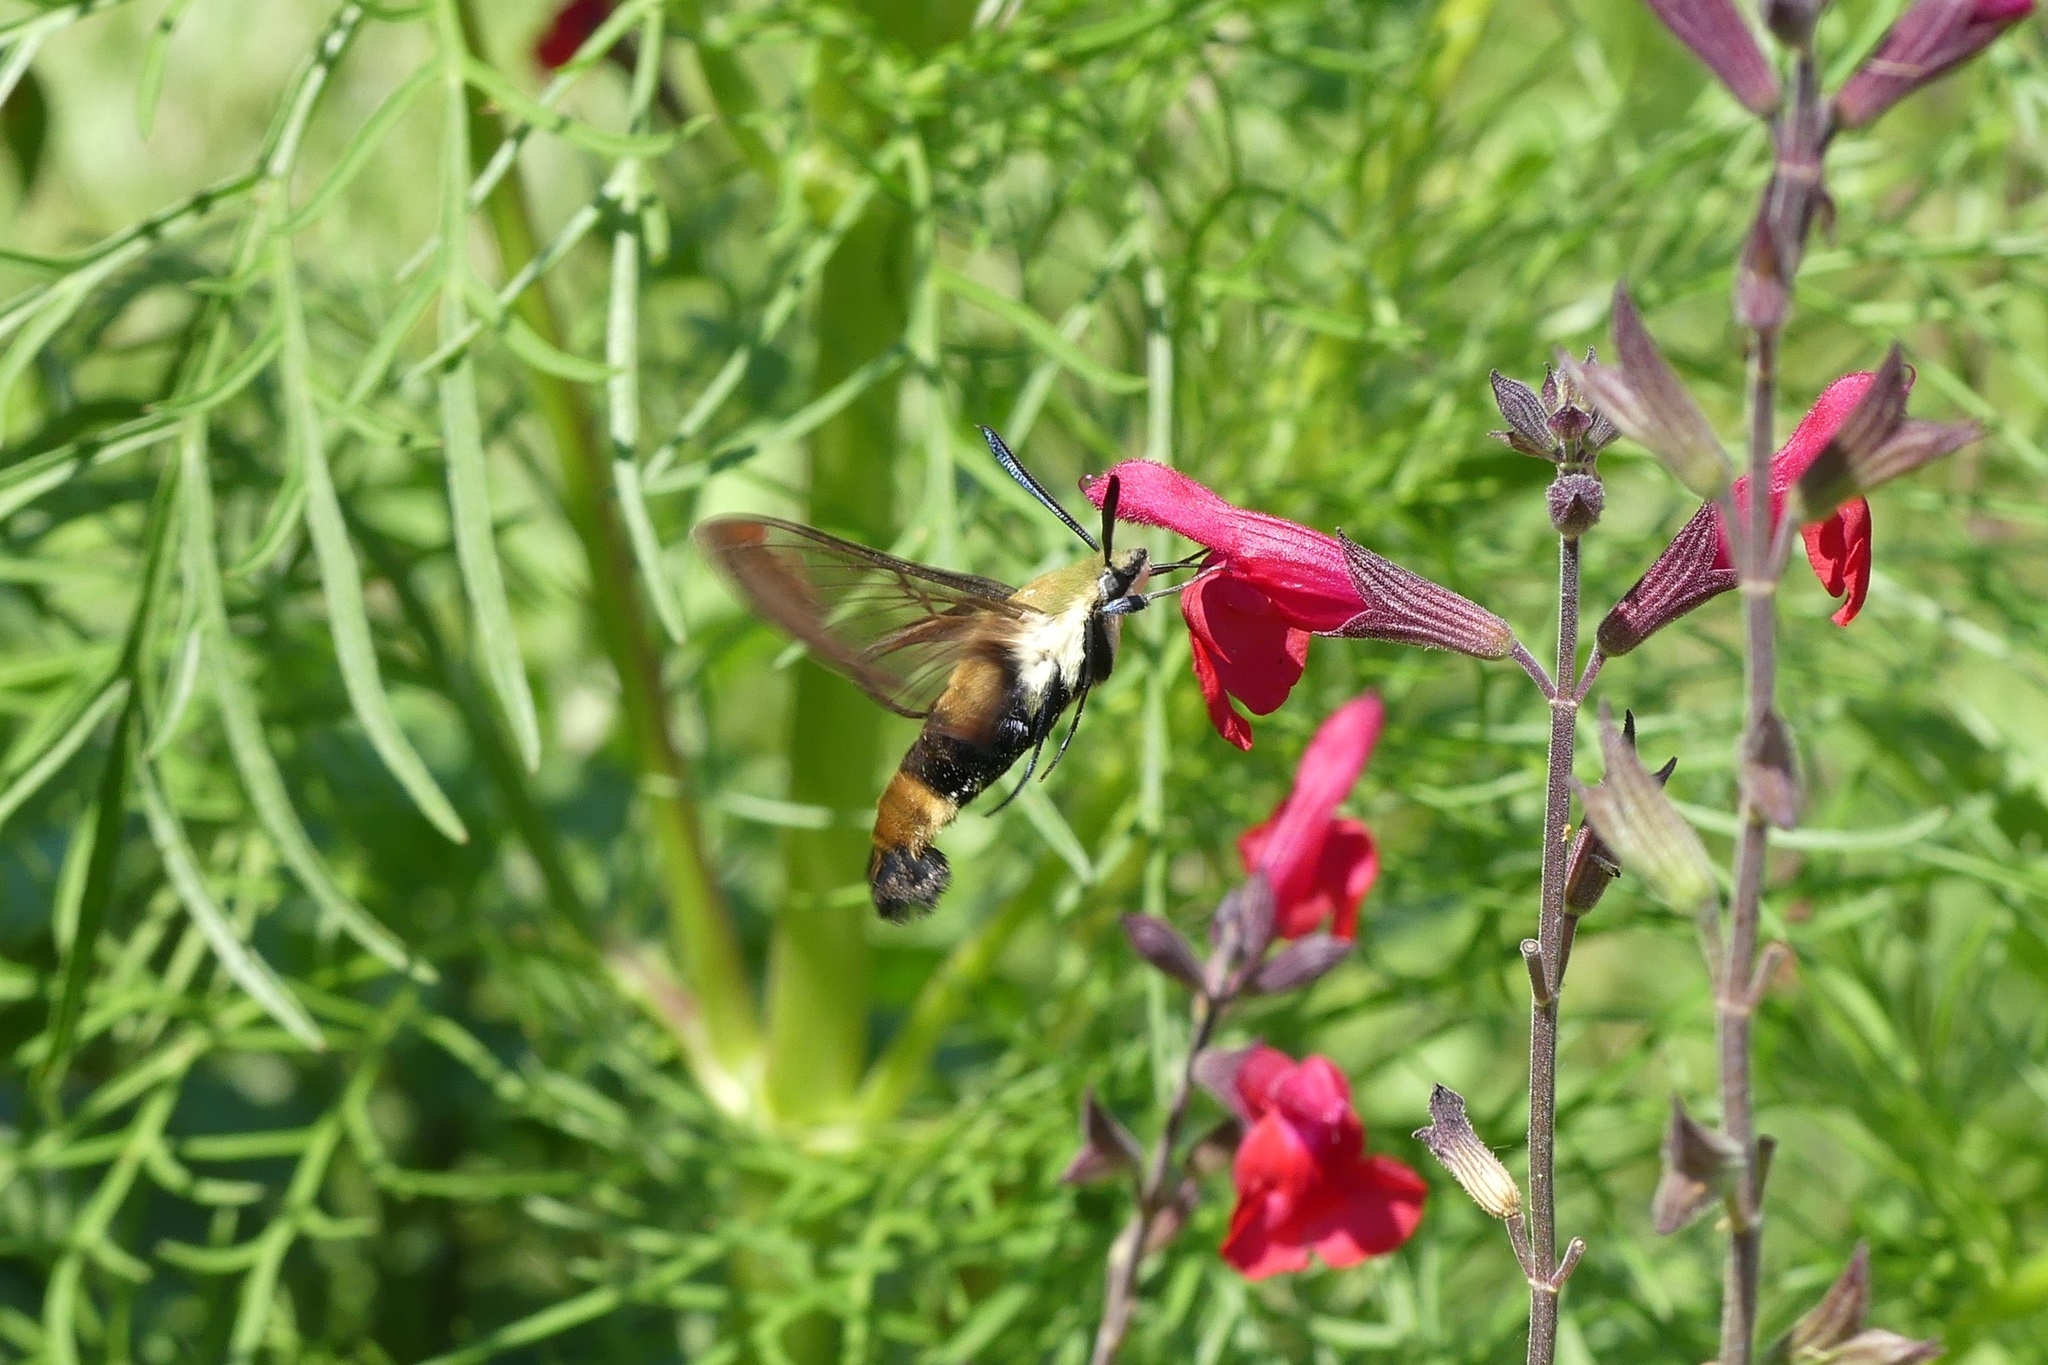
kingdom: Animalia
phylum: Arthropoda
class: Insecta
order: Lepidoptera
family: Sphingidae
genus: Hemaris
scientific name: Hemaris diffinis
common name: Bumblebee moth
